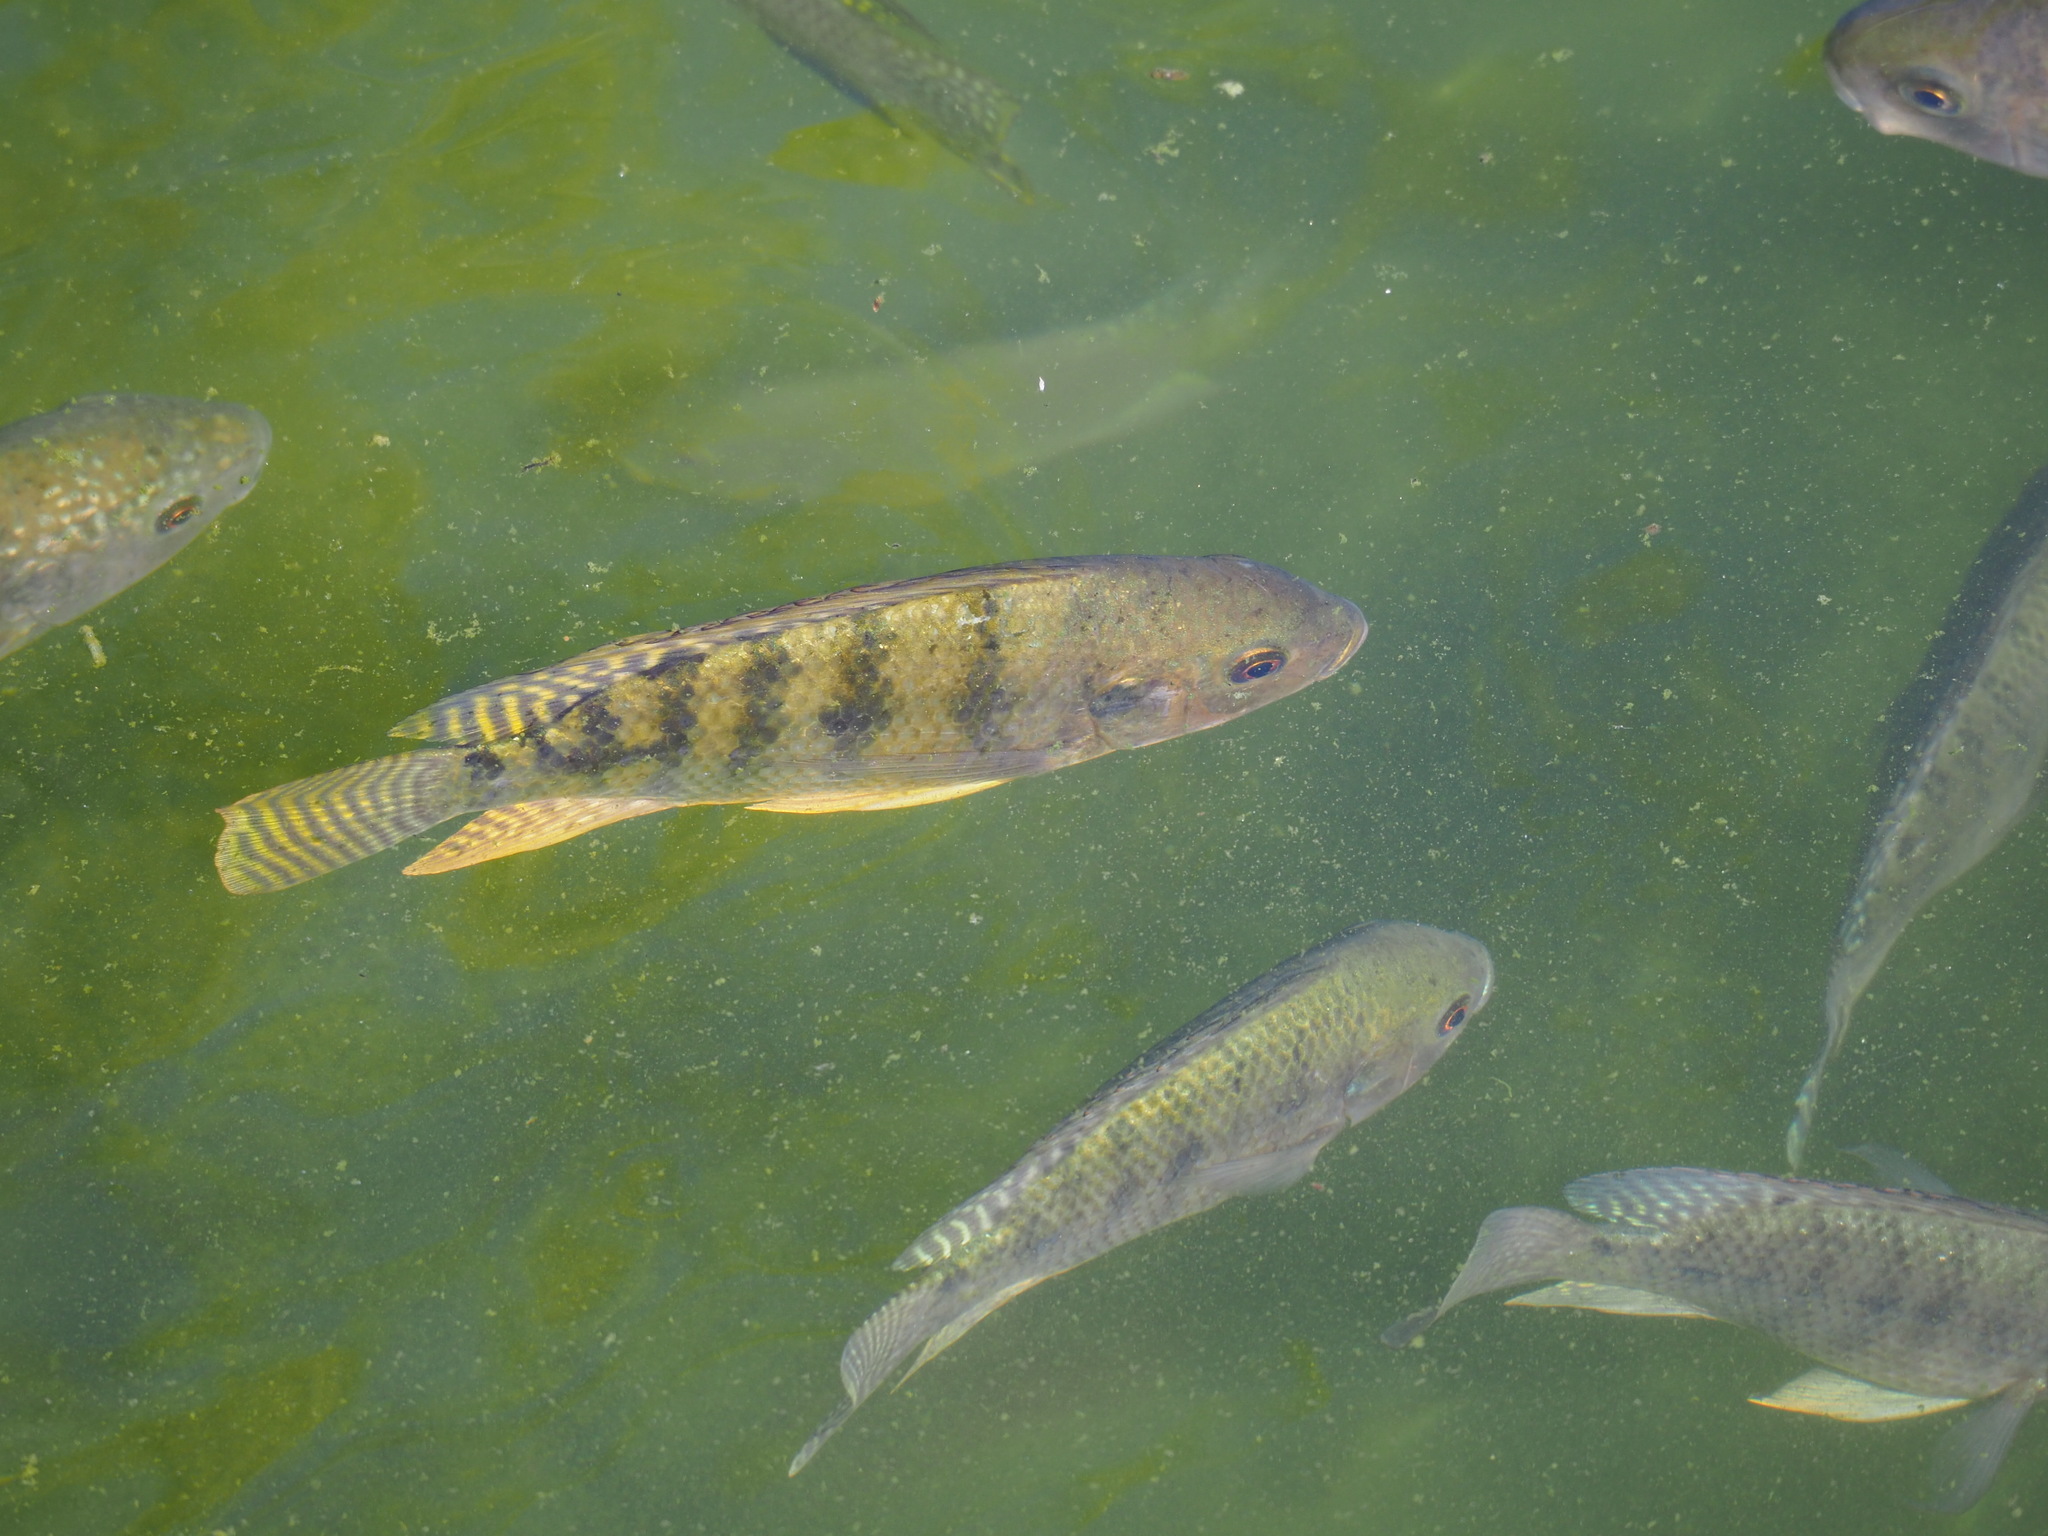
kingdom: Animalia
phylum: Chordata
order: Perciformes
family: Cichlidae
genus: Oreochromis
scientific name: Oreochromis niloticus
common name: Nile tilapia
